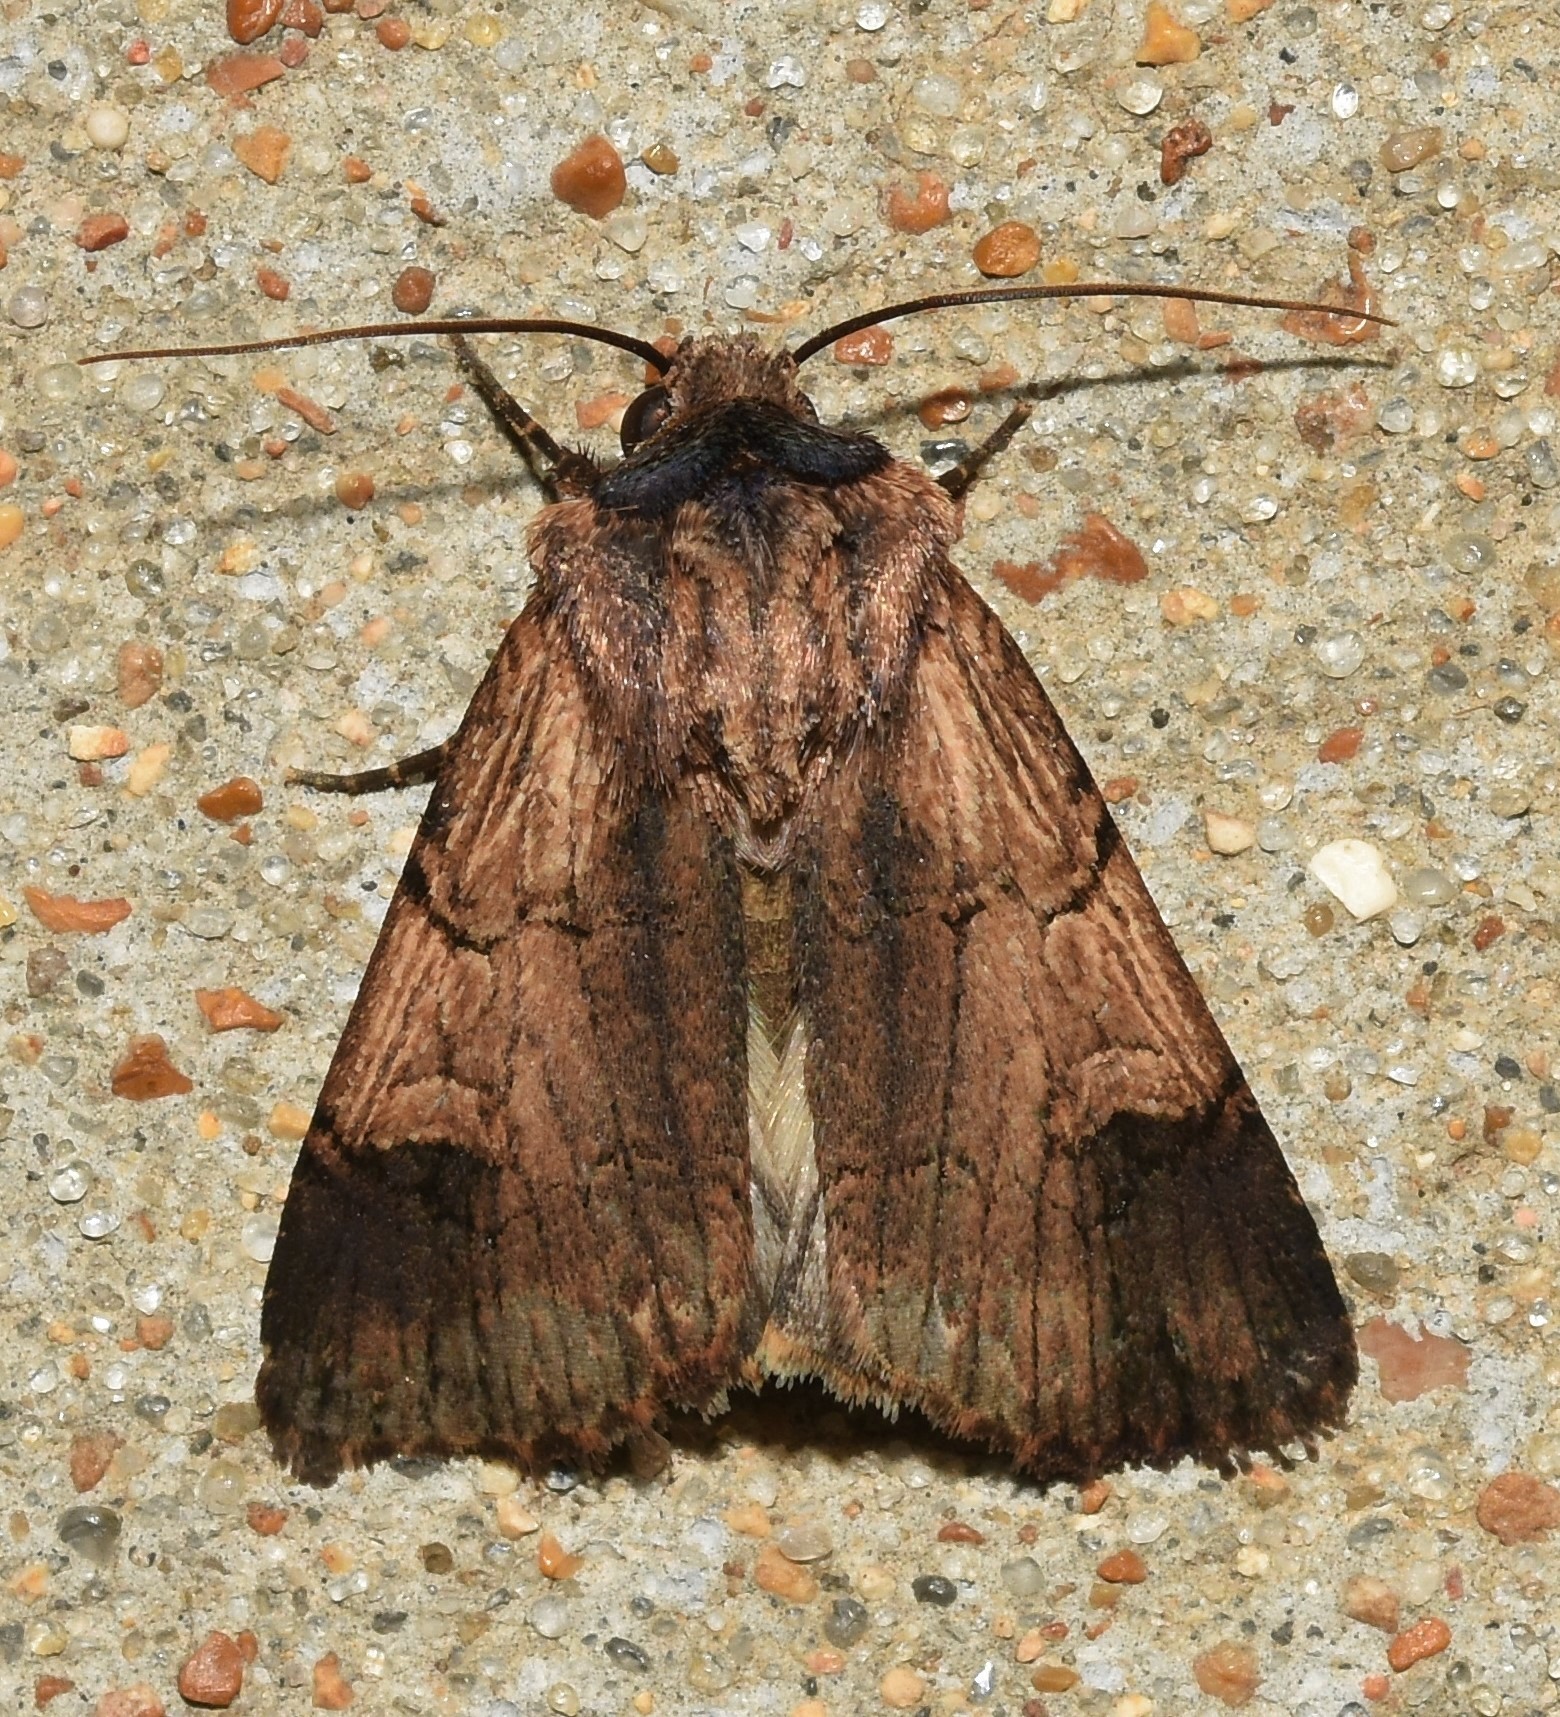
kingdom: Animalia
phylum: Arthropoda
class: Insecta
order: Lepidoptera
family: Noctuidae
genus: Dichagyris
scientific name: Dichagyris grotei
